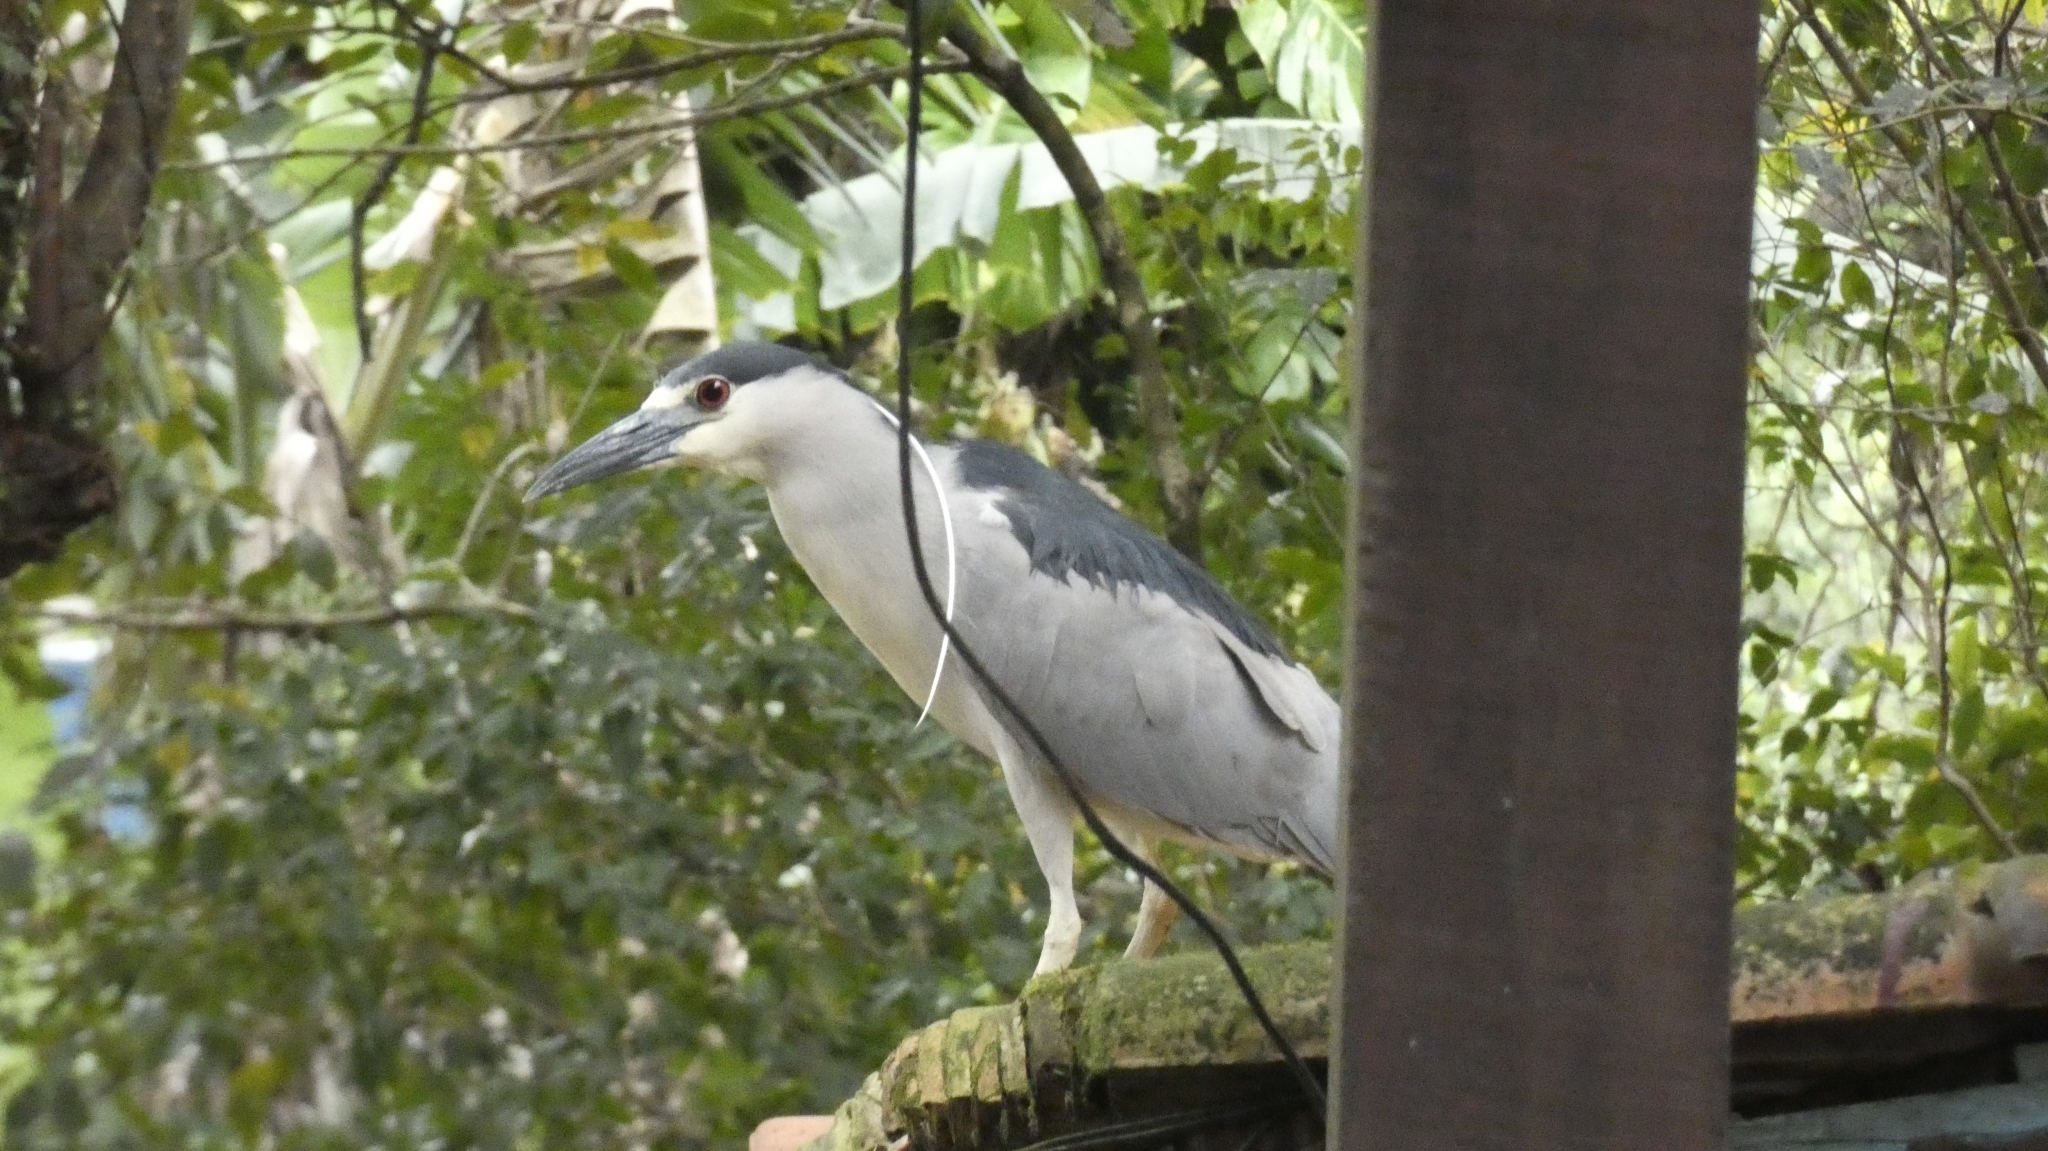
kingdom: Animalia
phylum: Chordata
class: Aves
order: Pelecaniformes
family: Ardeidae
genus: Nycticorax
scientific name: Nycticorax nycticorax
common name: Black-crowned night heron
